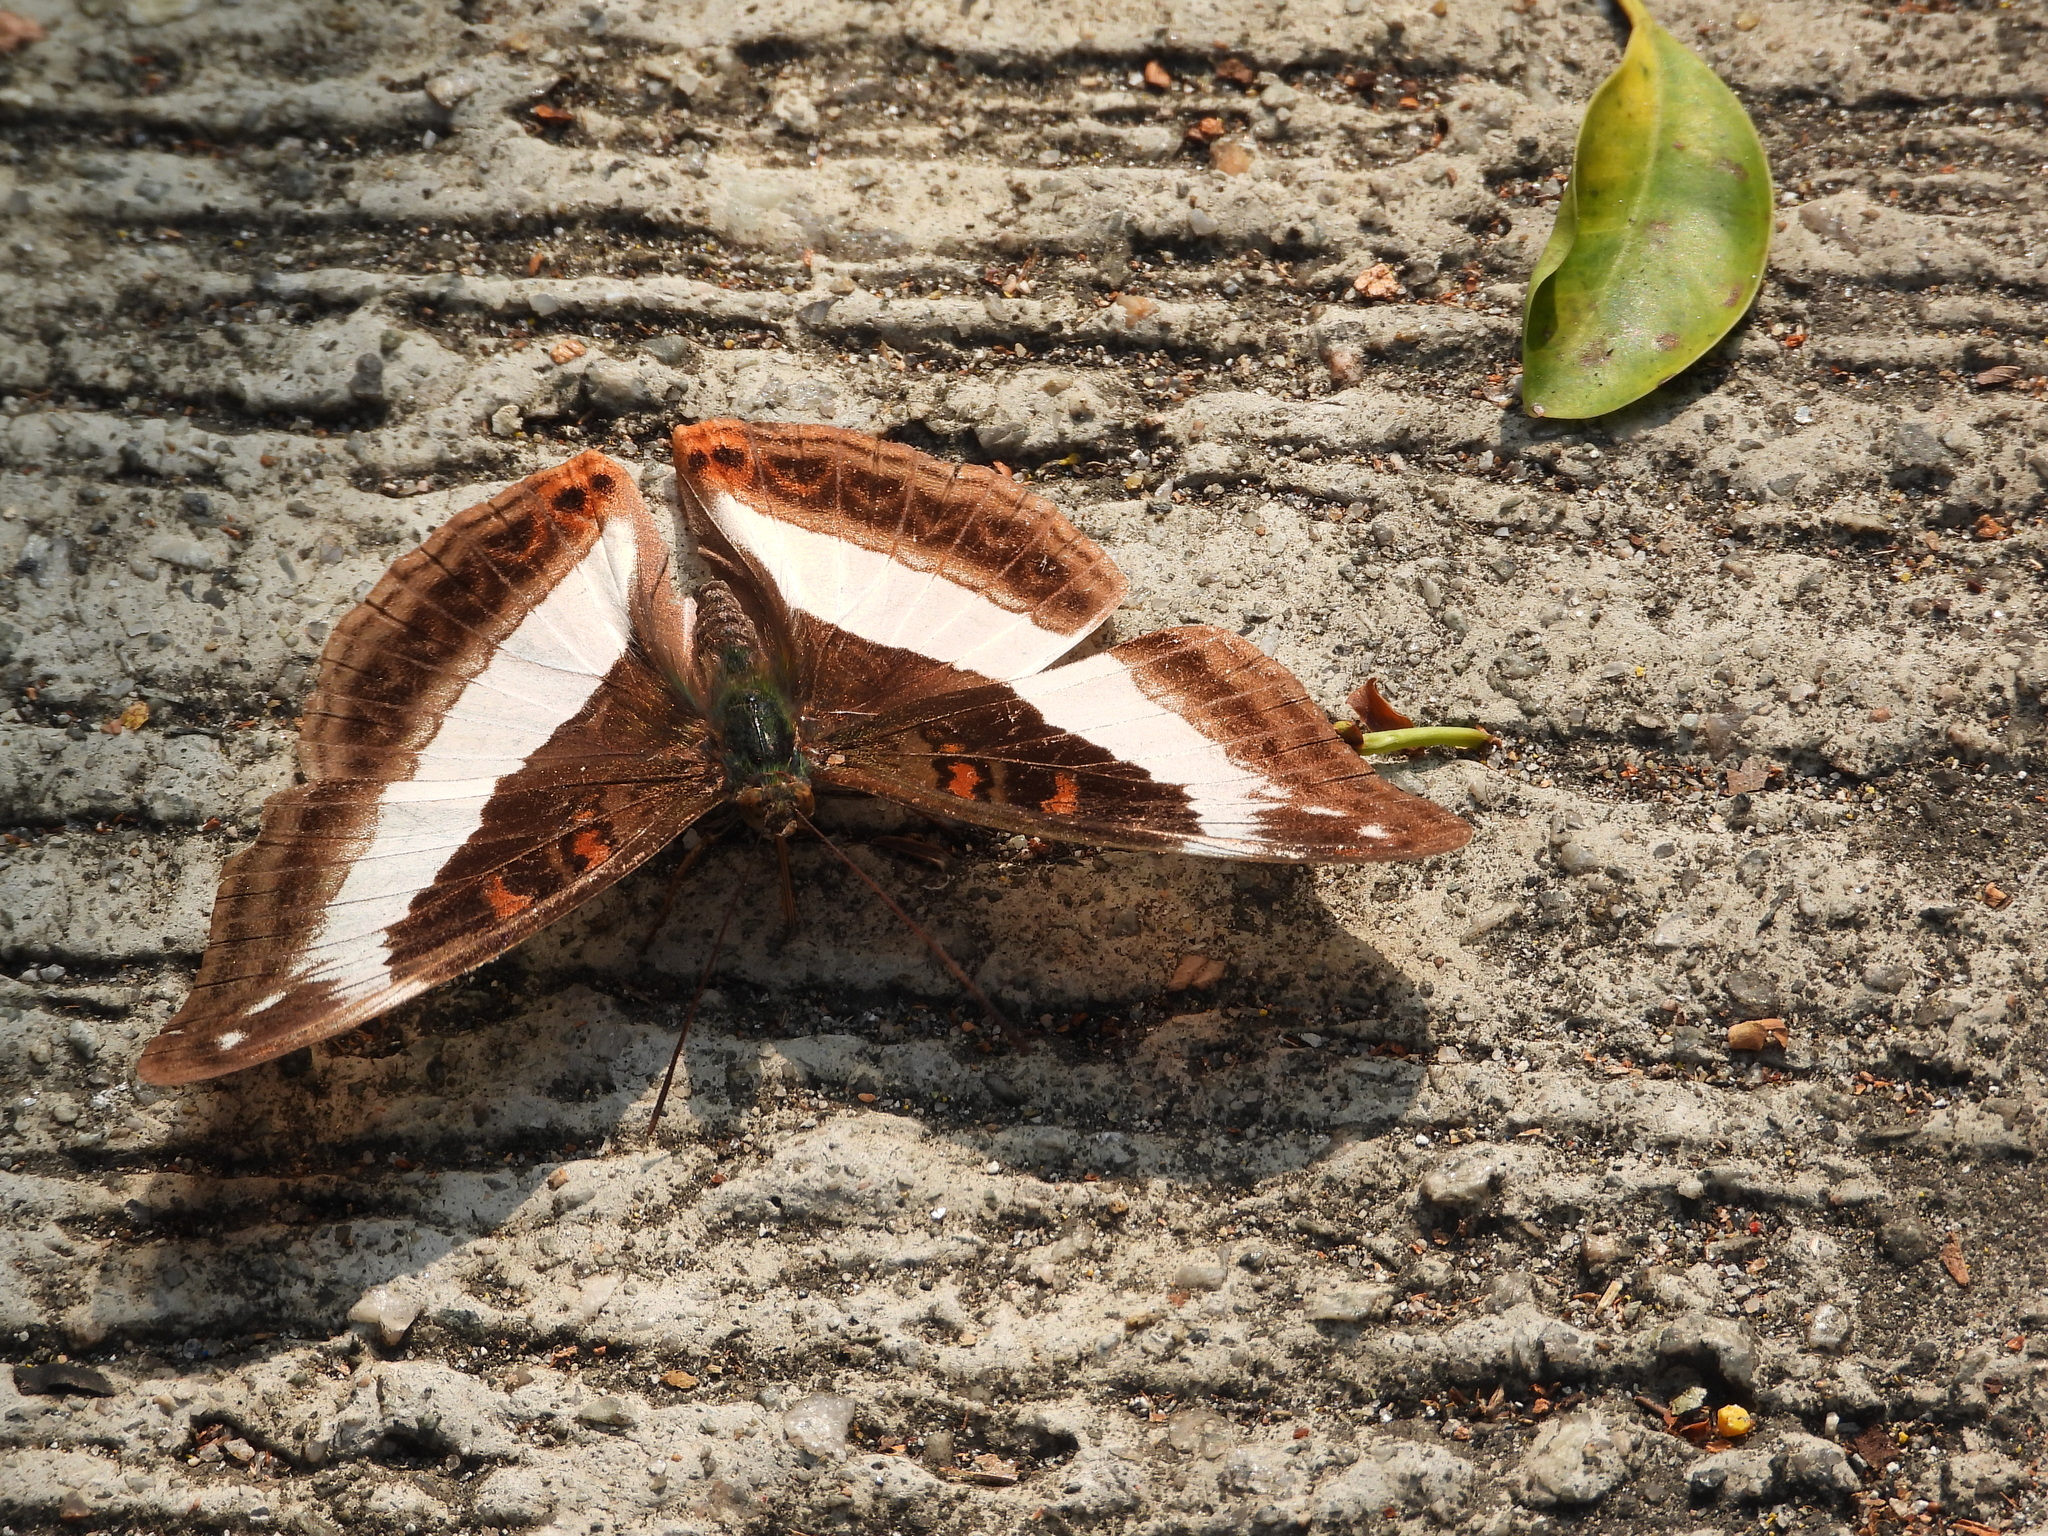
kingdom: Animalia
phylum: Arthropoda
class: Insecta
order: Lepidoptera
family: Nymphalidae
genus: Limenitis
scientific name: Limenitis Parasarpa dudu
